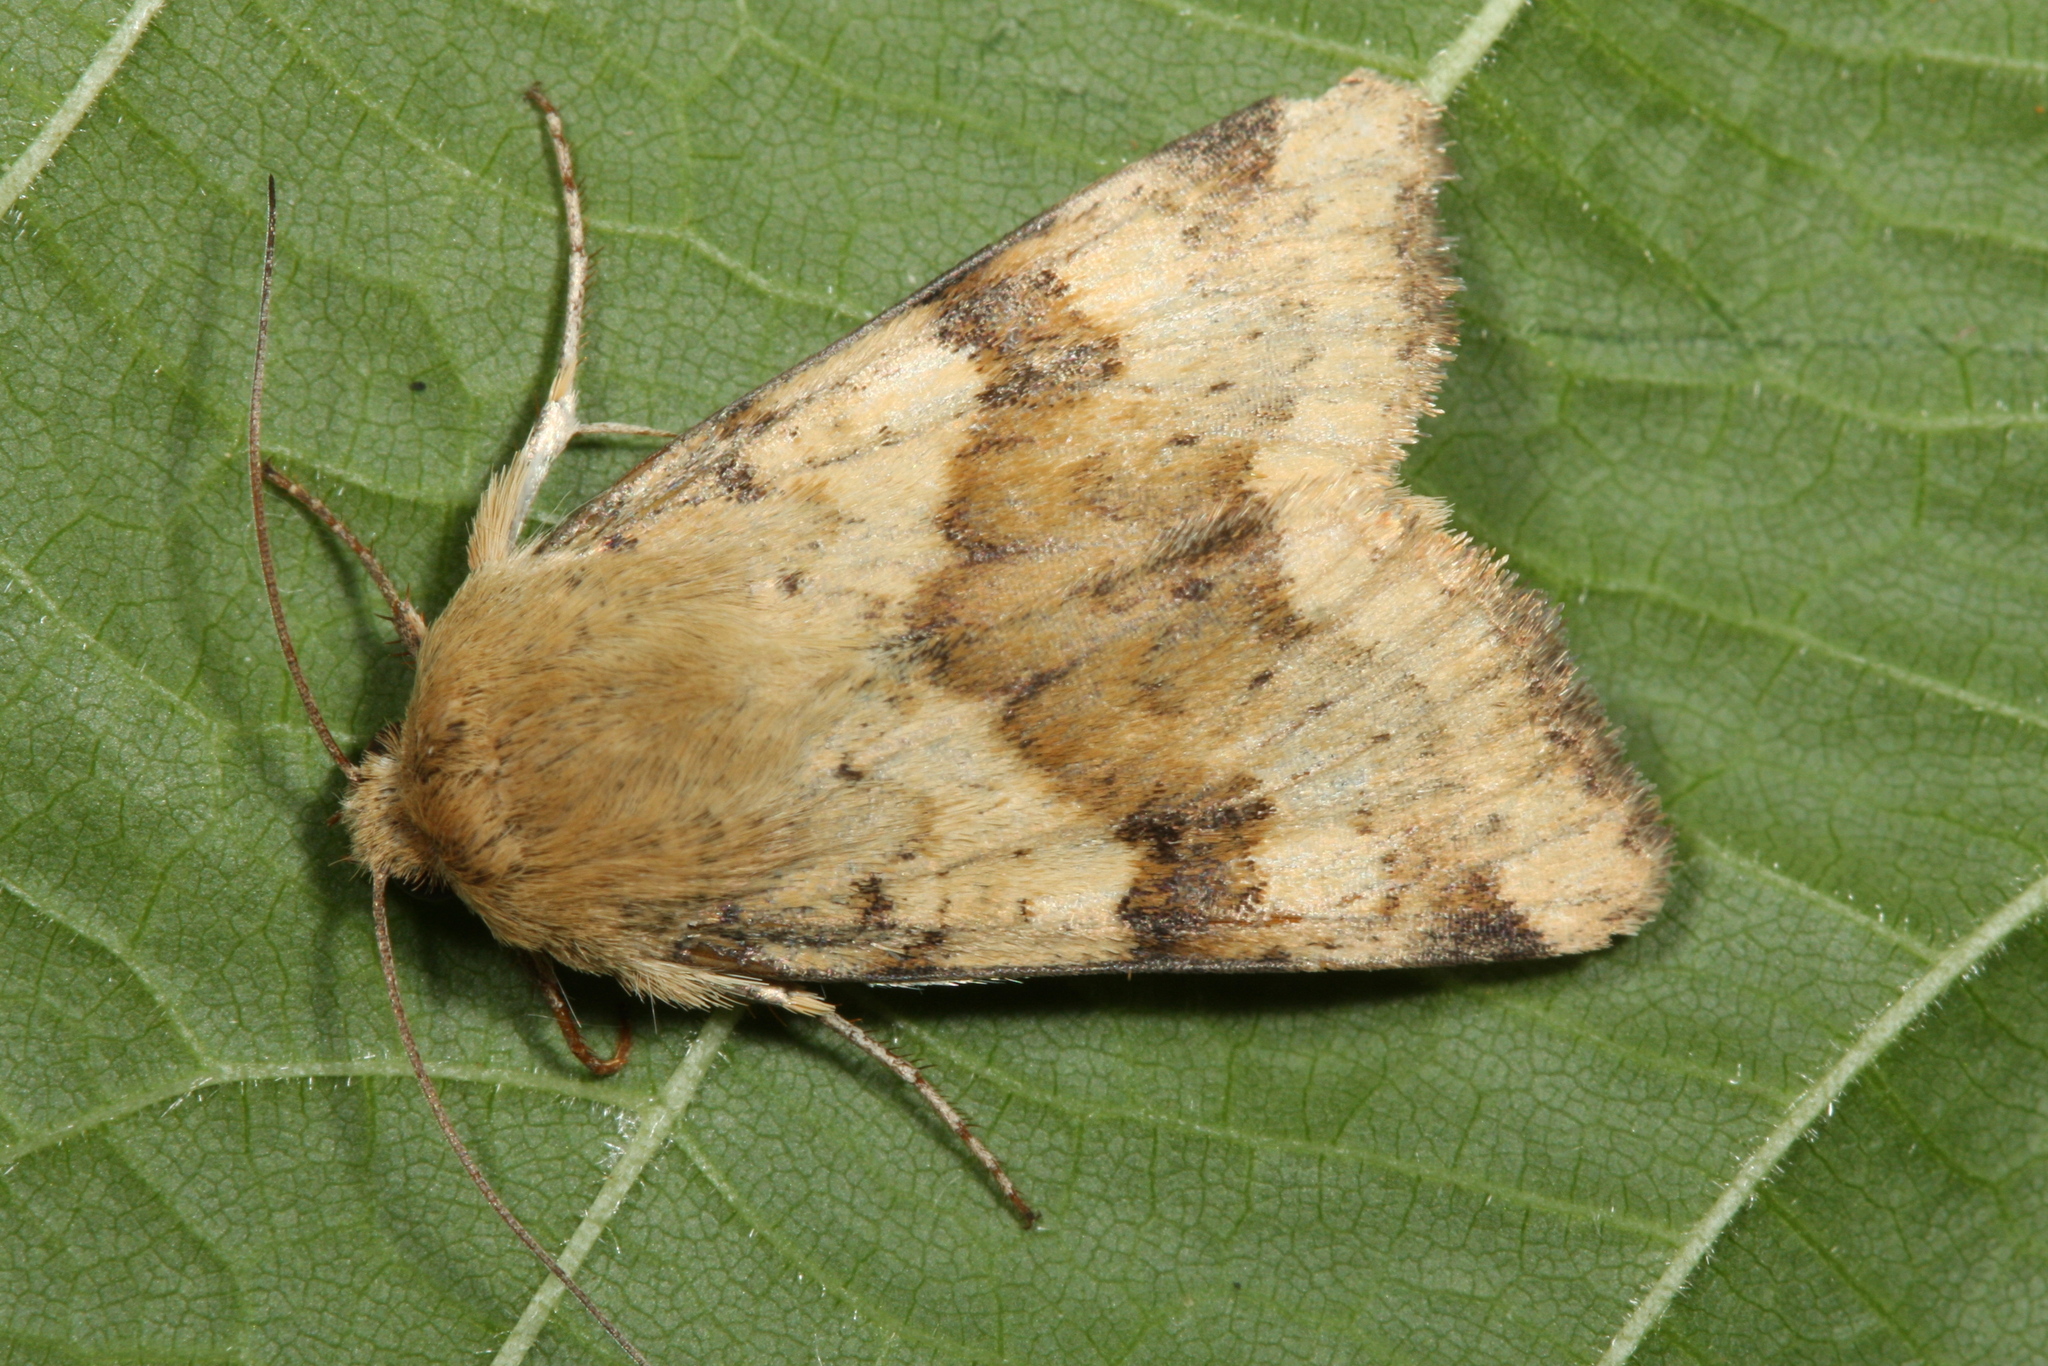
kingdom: Animalia
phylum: Arthropoda
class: Insecta
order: Lepidoptera
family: Noctuidae
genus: Heliothis
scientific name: Heliothis viriplaca
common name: Marbled clover
